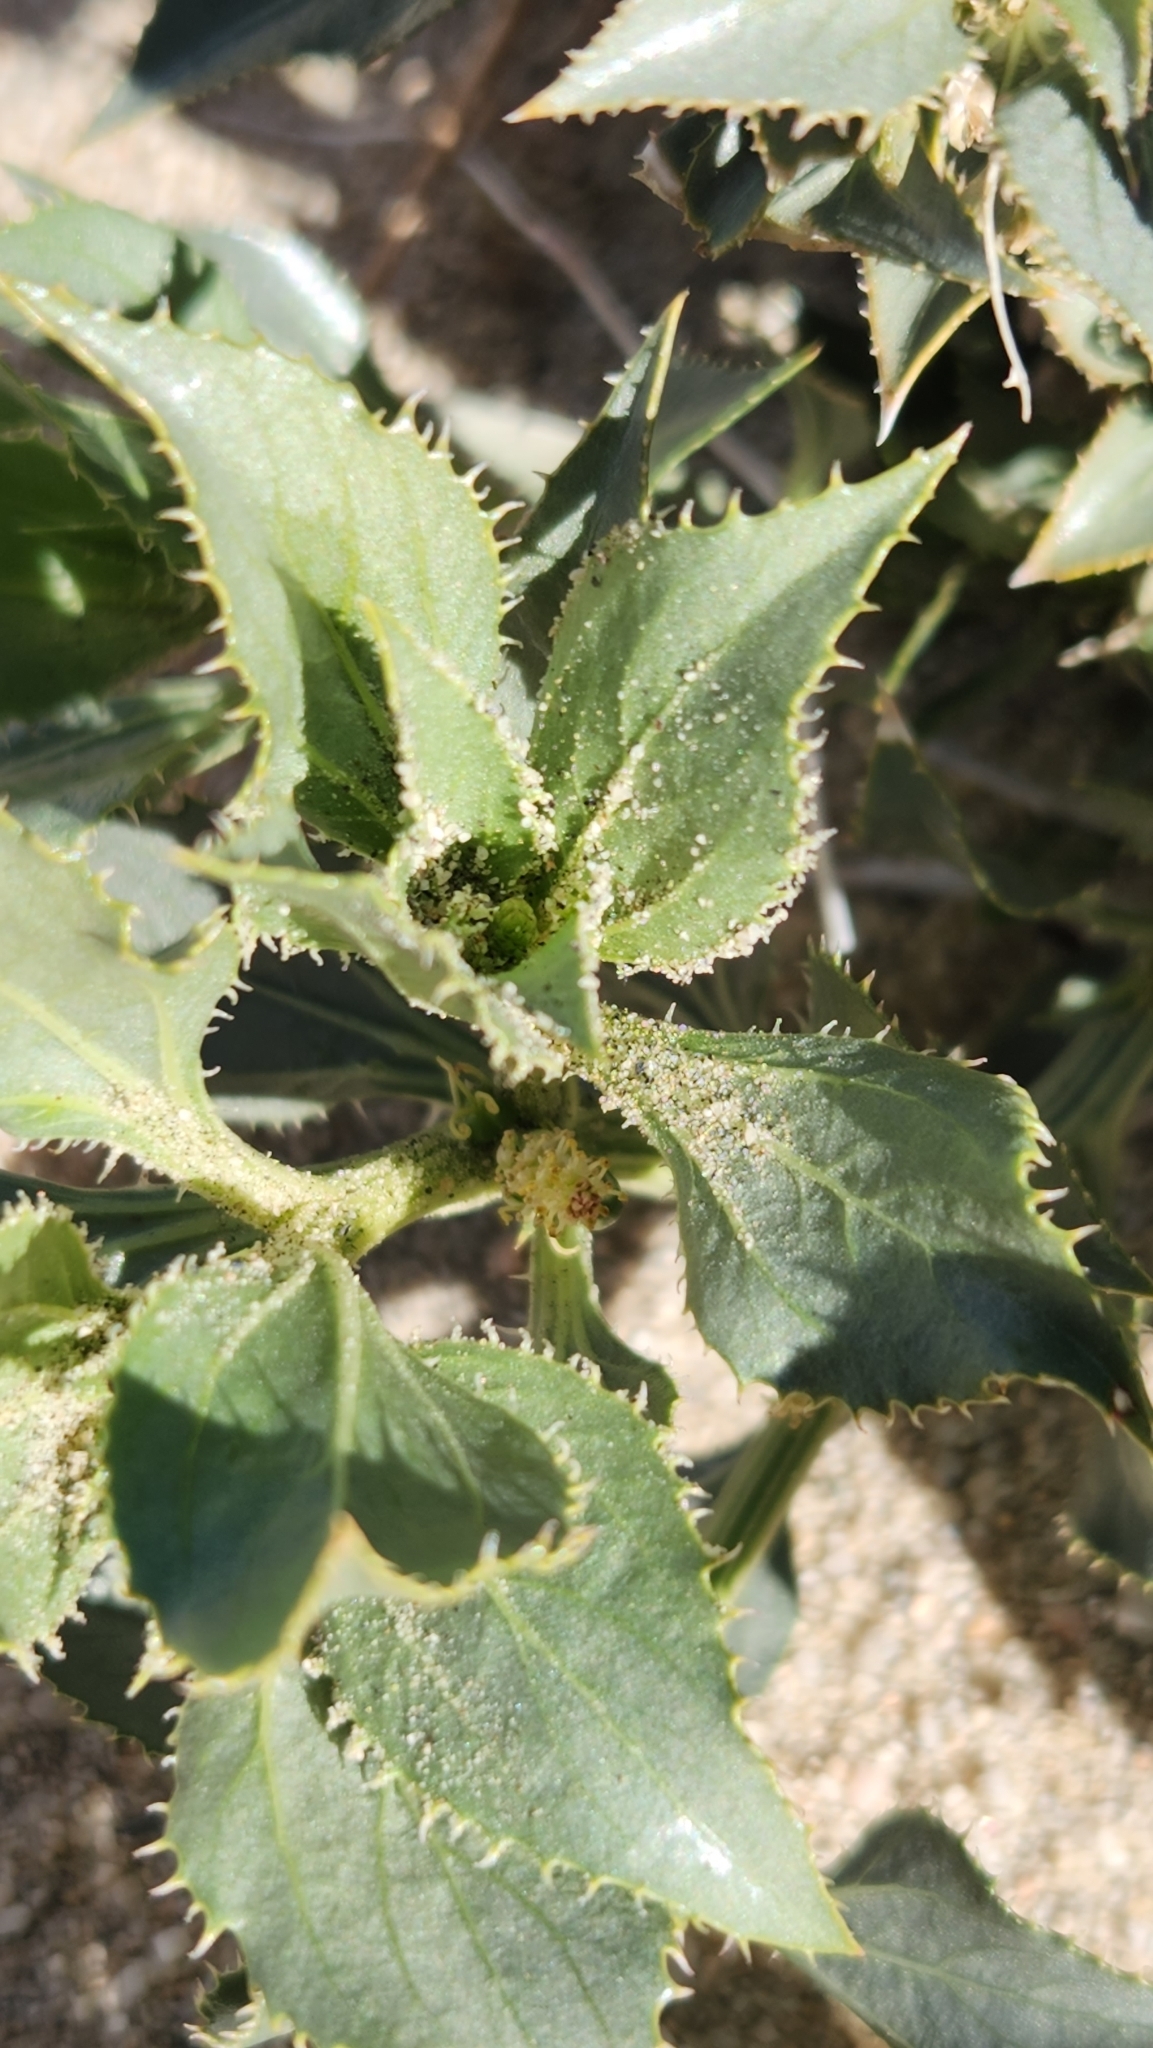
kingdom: Plantae
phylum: Tracheophyta
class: Magnoliopsida
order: Malpighiales
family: Euphorbiaceae
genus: Stillingia
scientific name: Stillingia spinulosa
